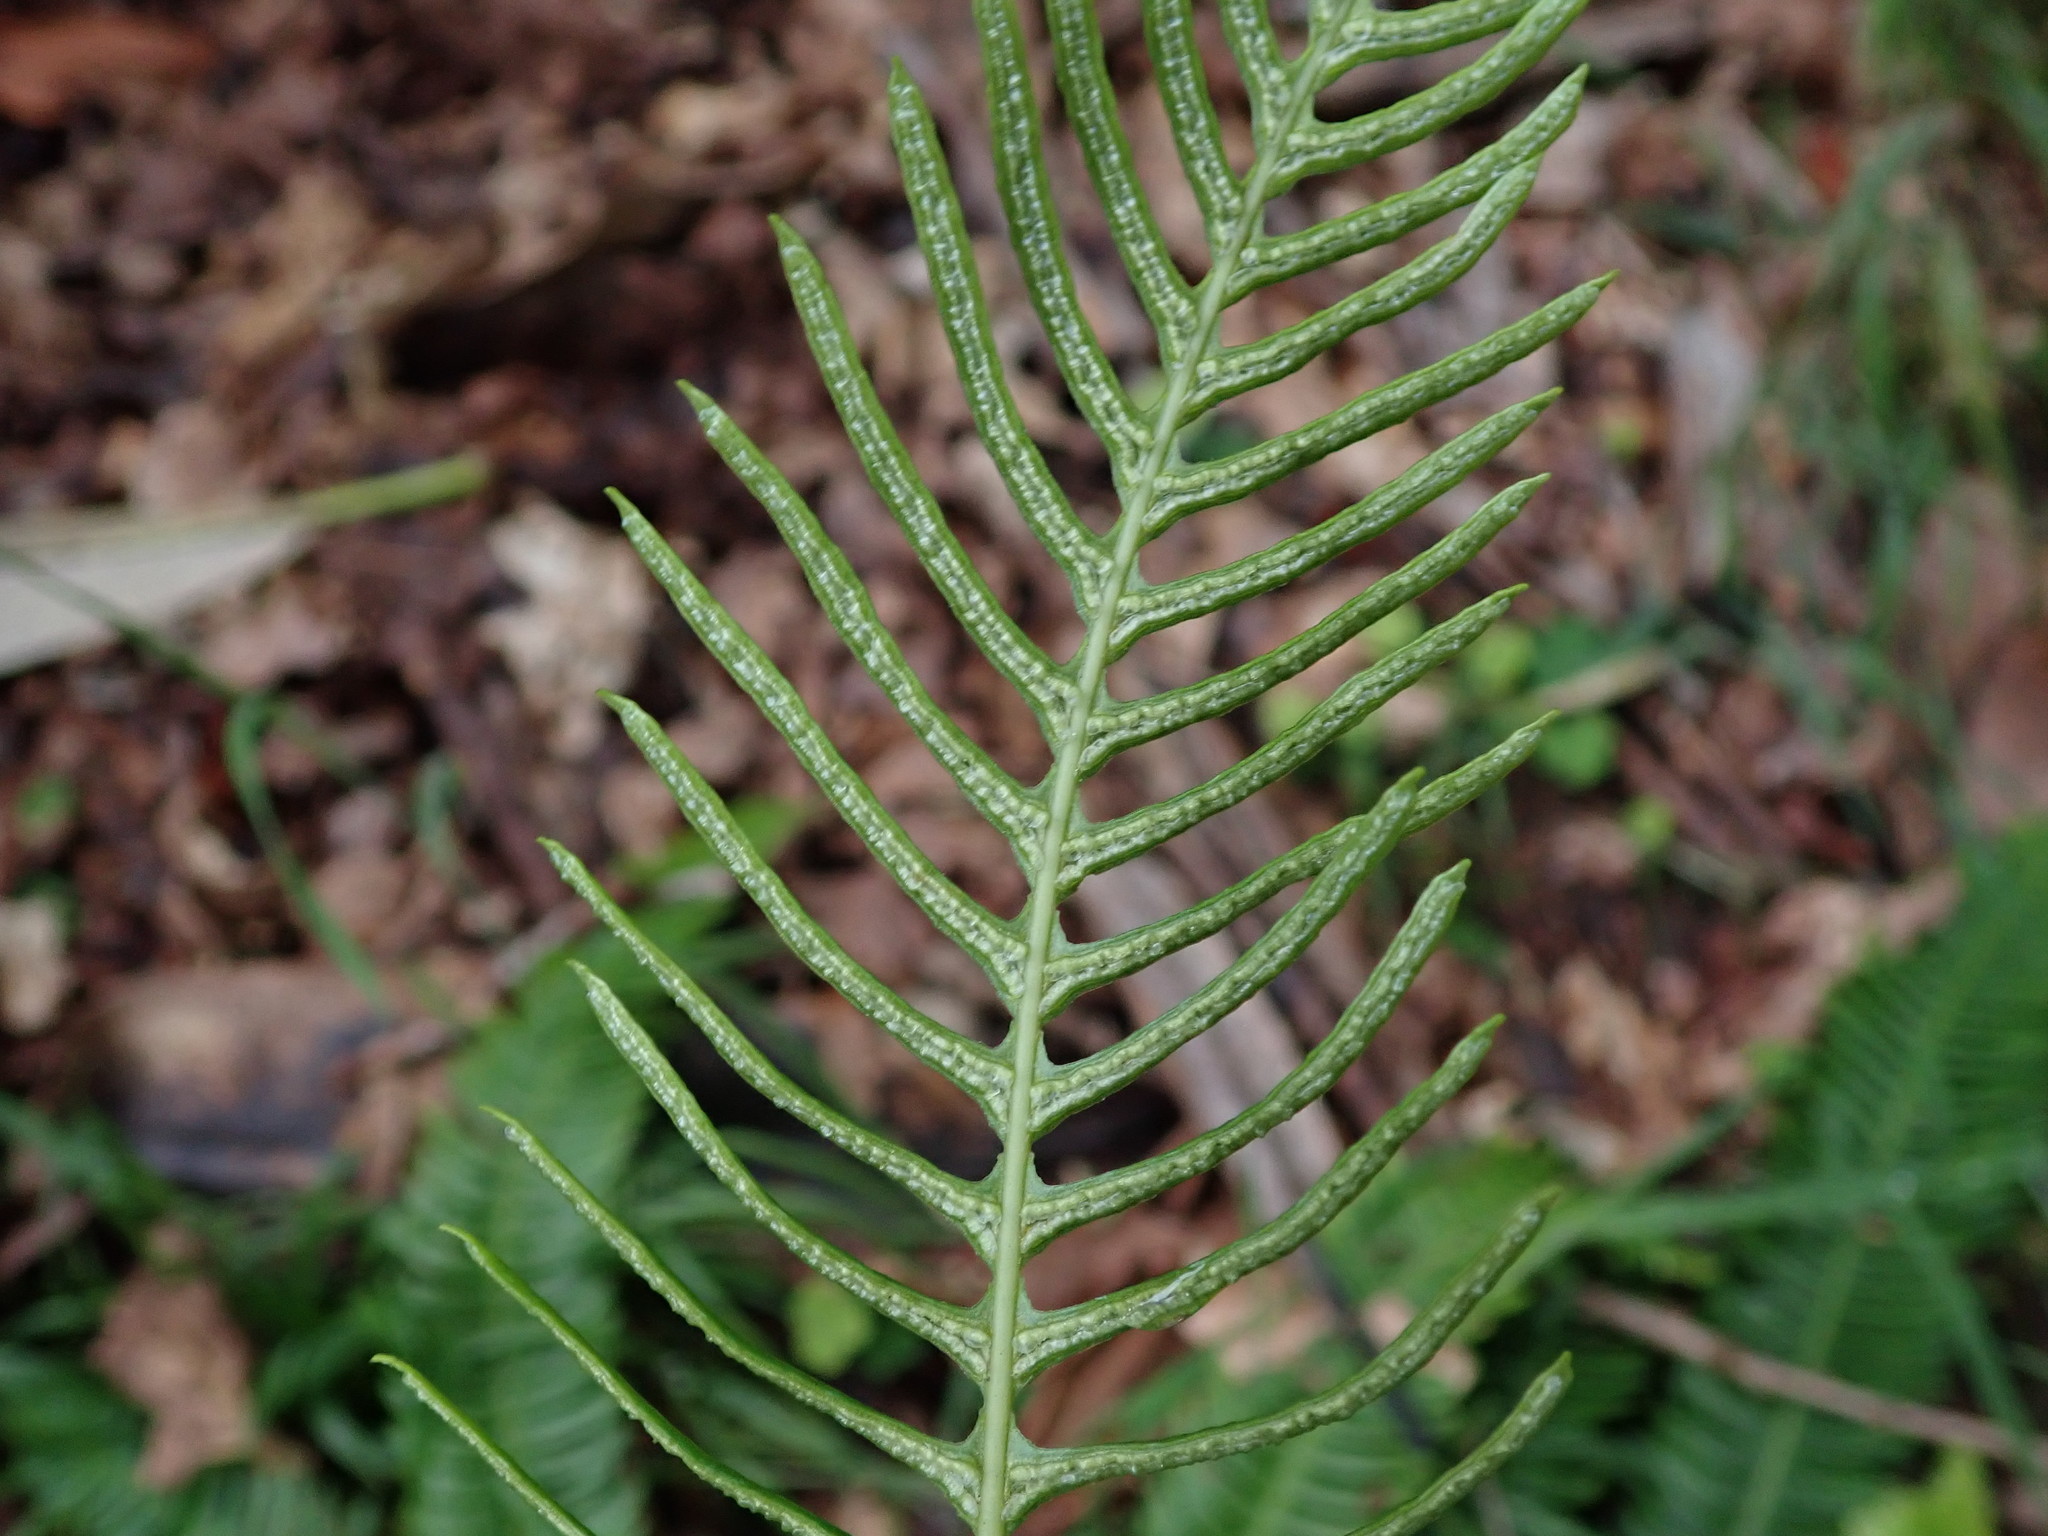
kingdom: Plantae
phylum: Tracheophyta
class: Polypodiopsida
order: Polypodiales
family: Blechnaceae
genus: Struthiopteris
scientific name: Struthiopteris spicant
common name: Deer fern
